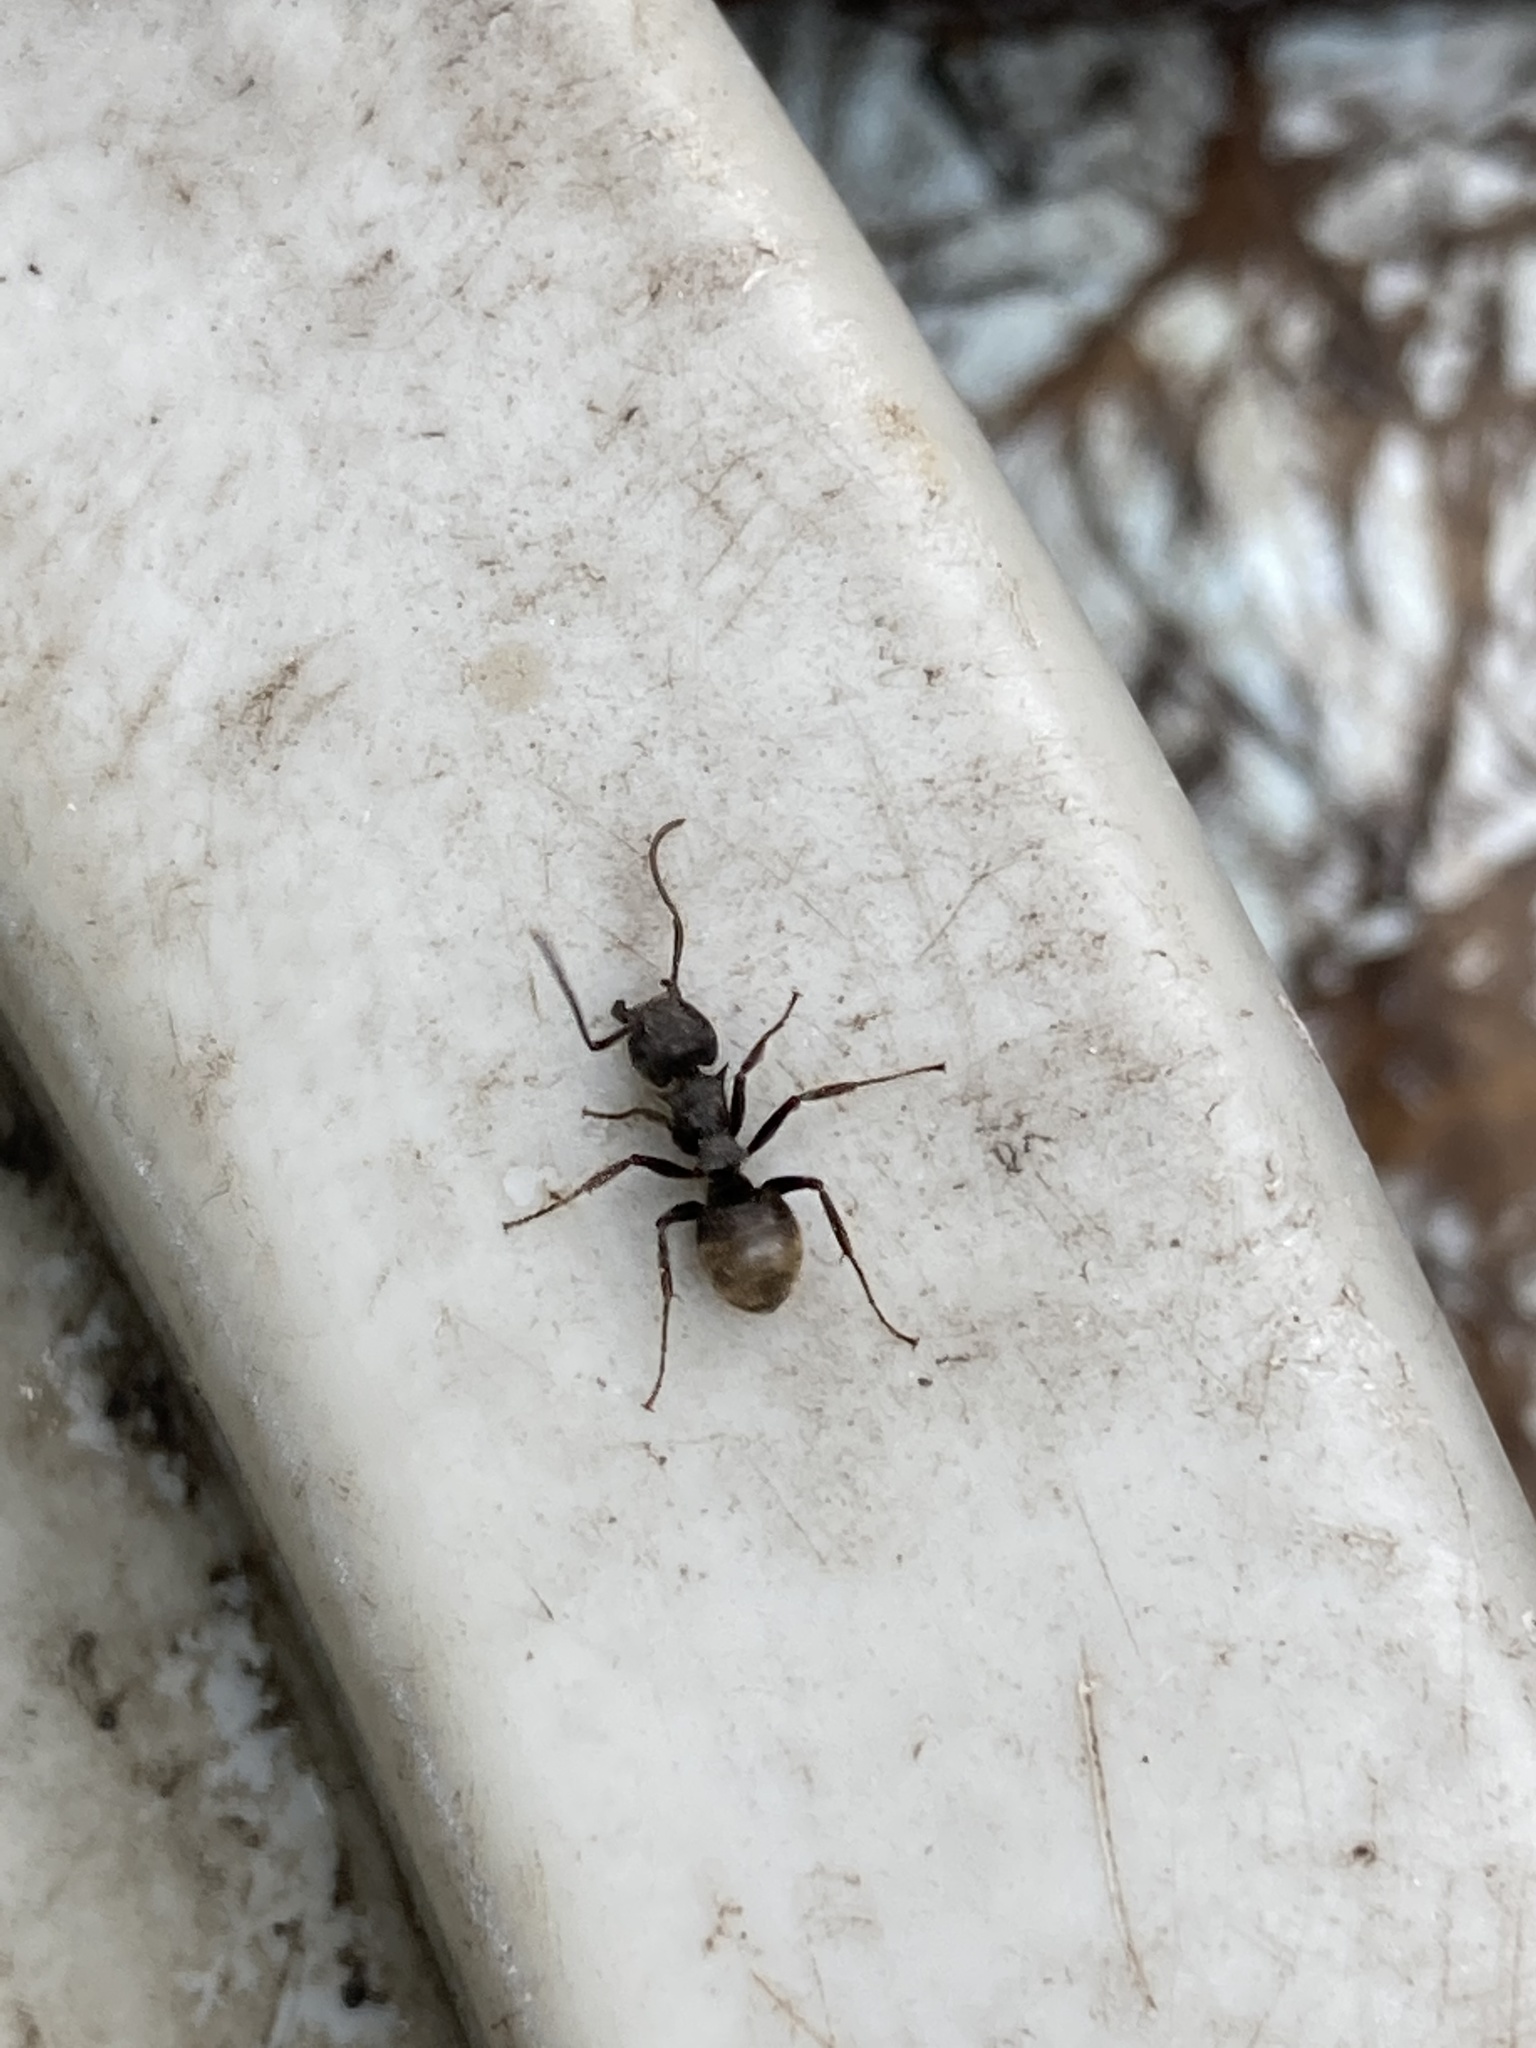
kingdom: Animalia
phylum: Arthropoda
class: Insecta
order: Hymenoptera
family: Formicidae
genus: Dolichoderus
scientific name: Dolichoderus bispinosus
